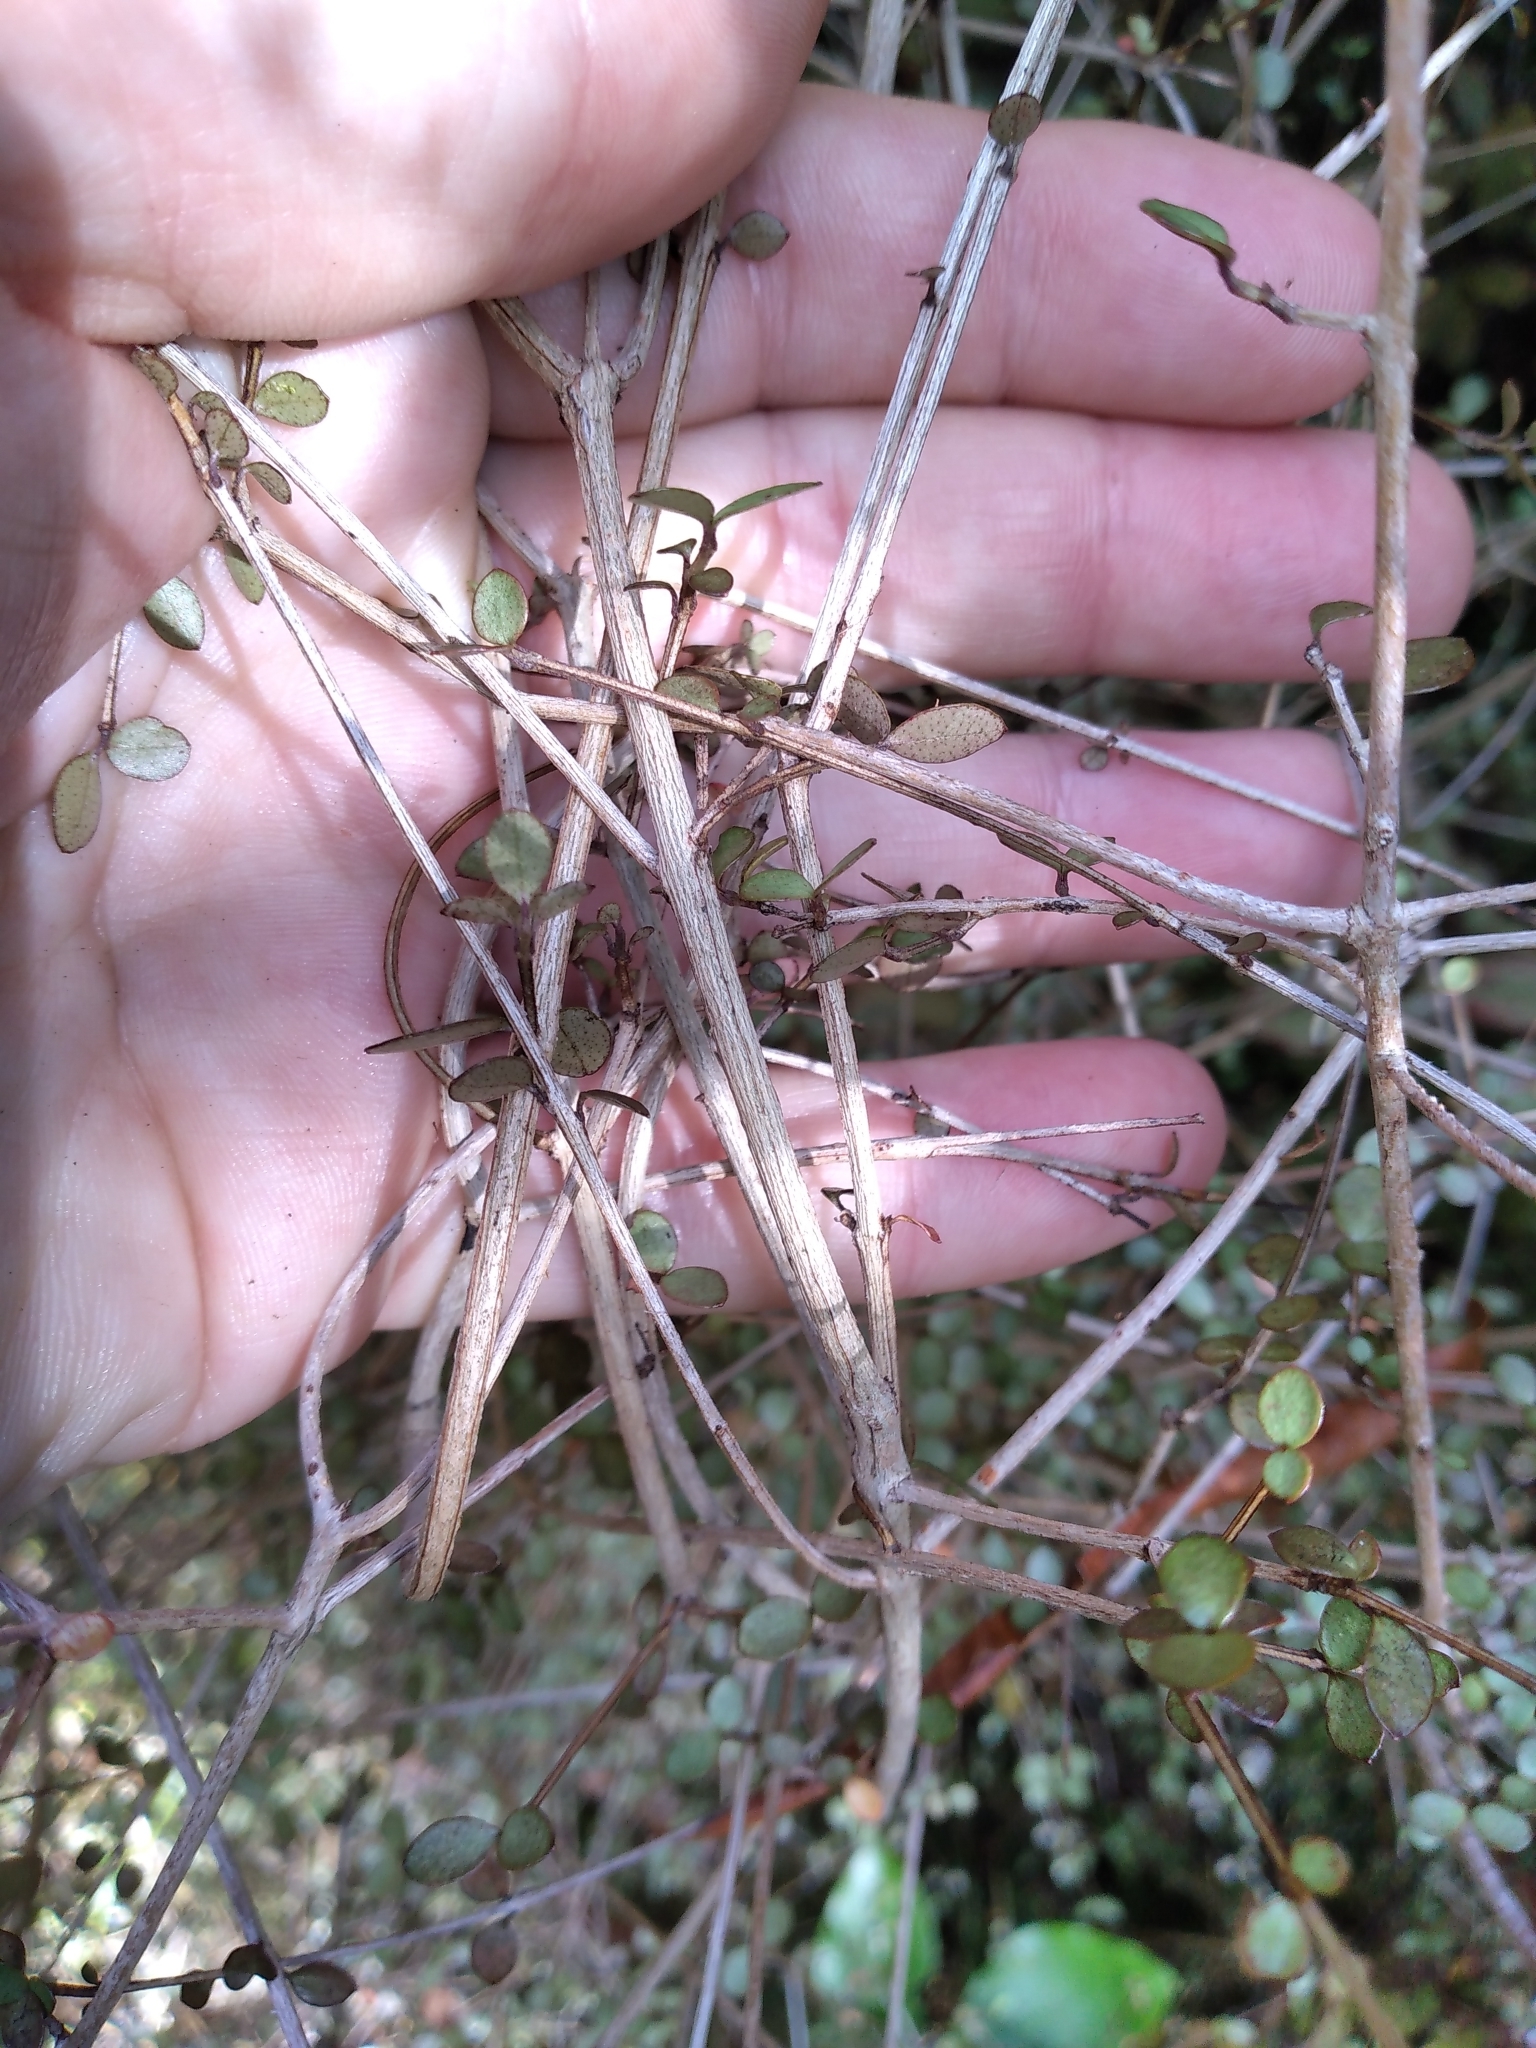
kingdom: Plantae
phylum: Tracheophyta
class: Magnoliopsida
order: Myrtales
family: Myrtaceae
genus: Neomyrtus
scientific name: Neomyrtus pedunculata
